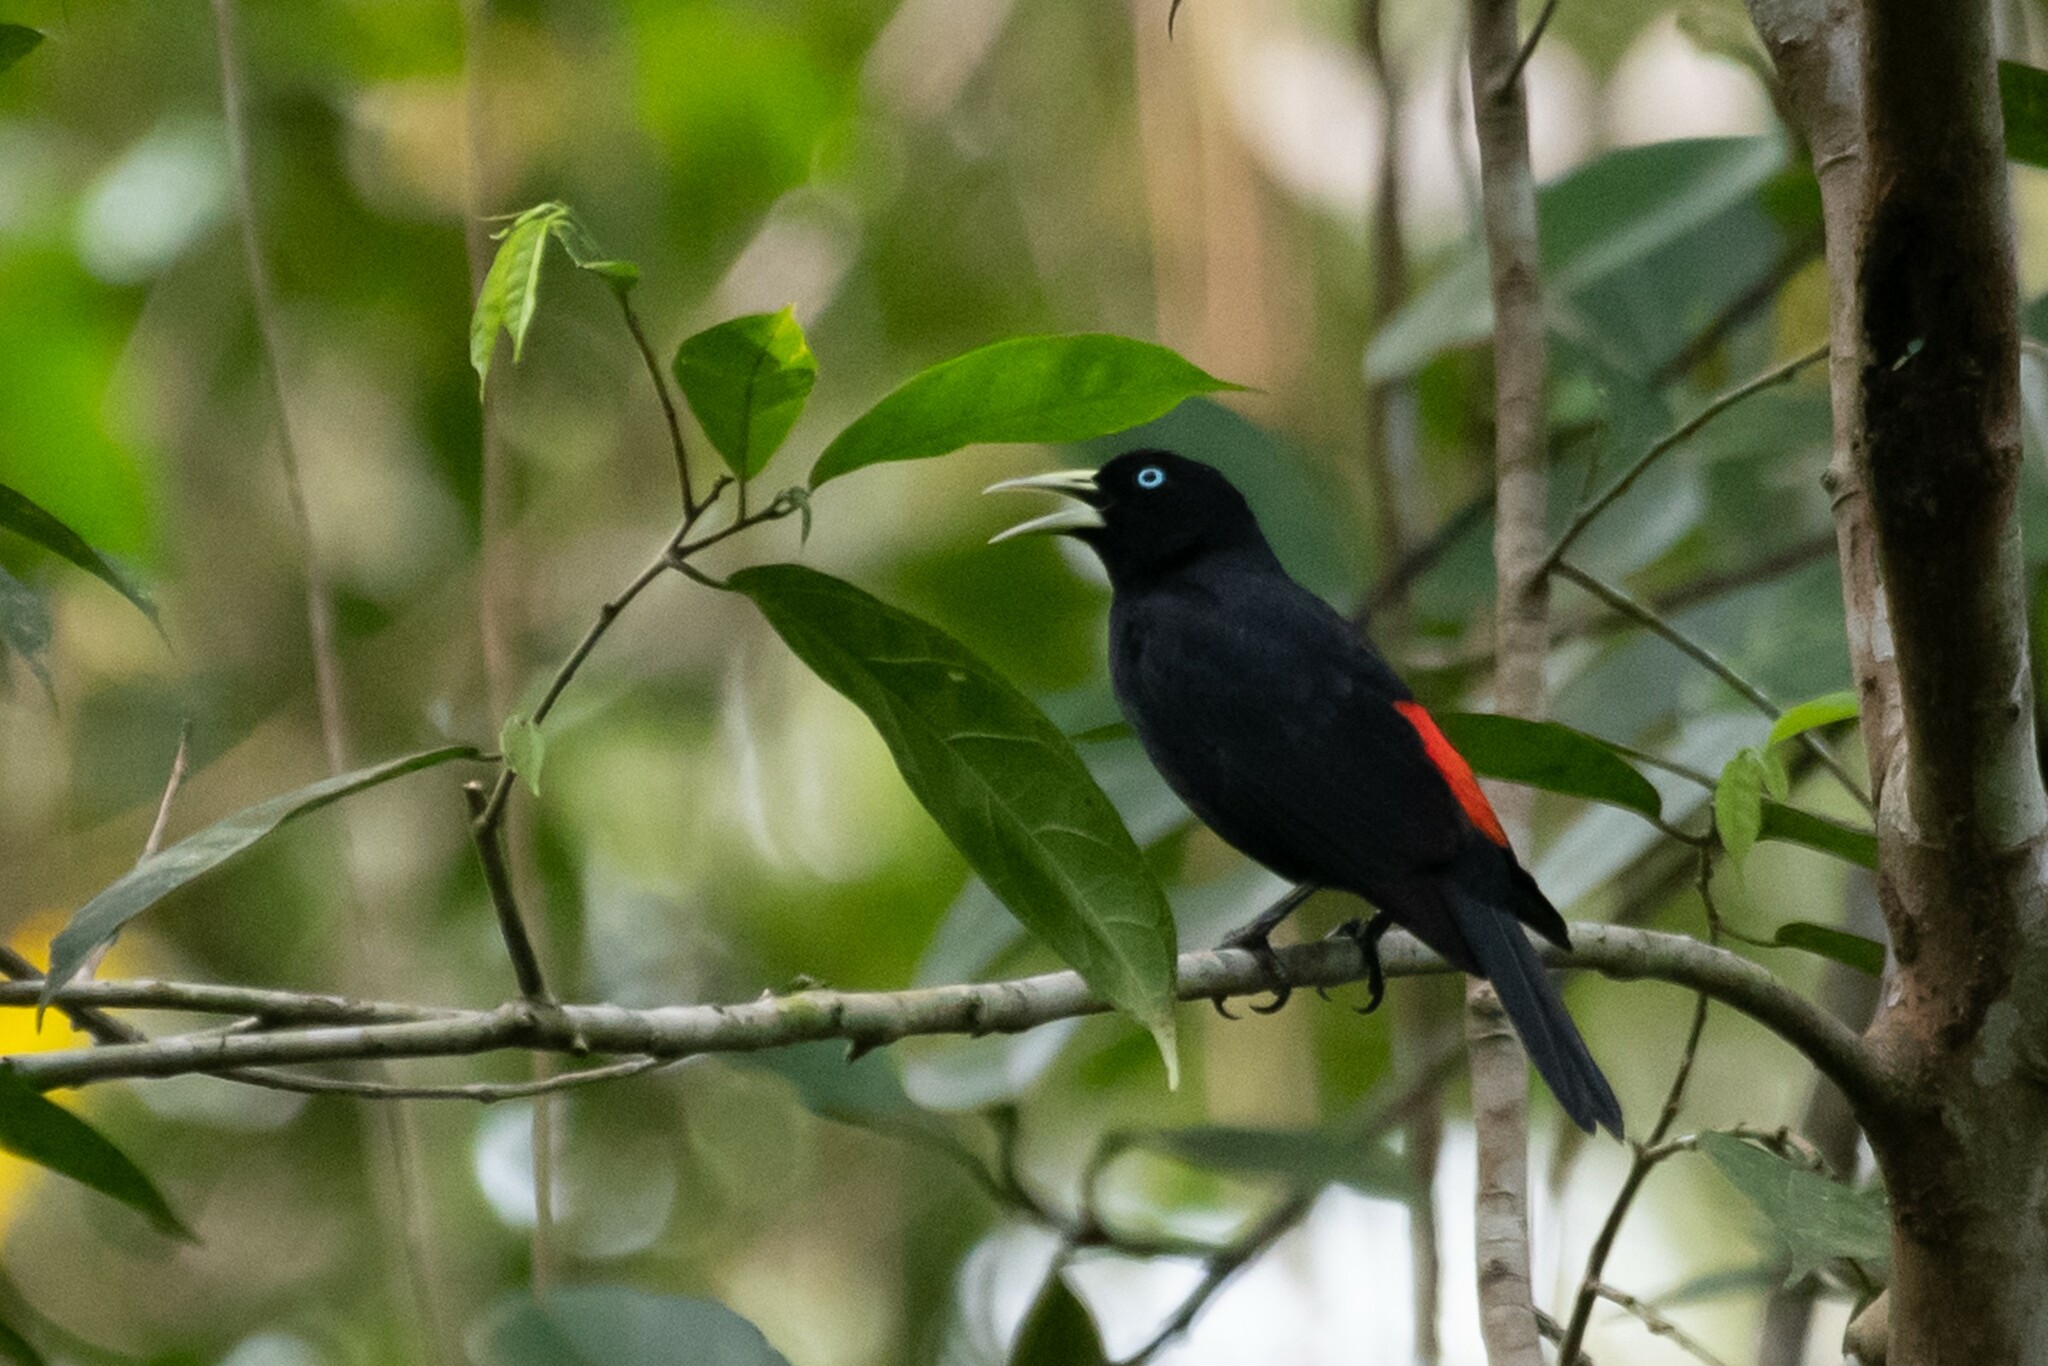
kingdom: Animalia
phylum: Chordata
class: Aves
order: Passeriformes
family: Icteridae
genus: Cacicus
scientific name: Cacicus uropygialis
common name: Scarlet-rumped cacique
